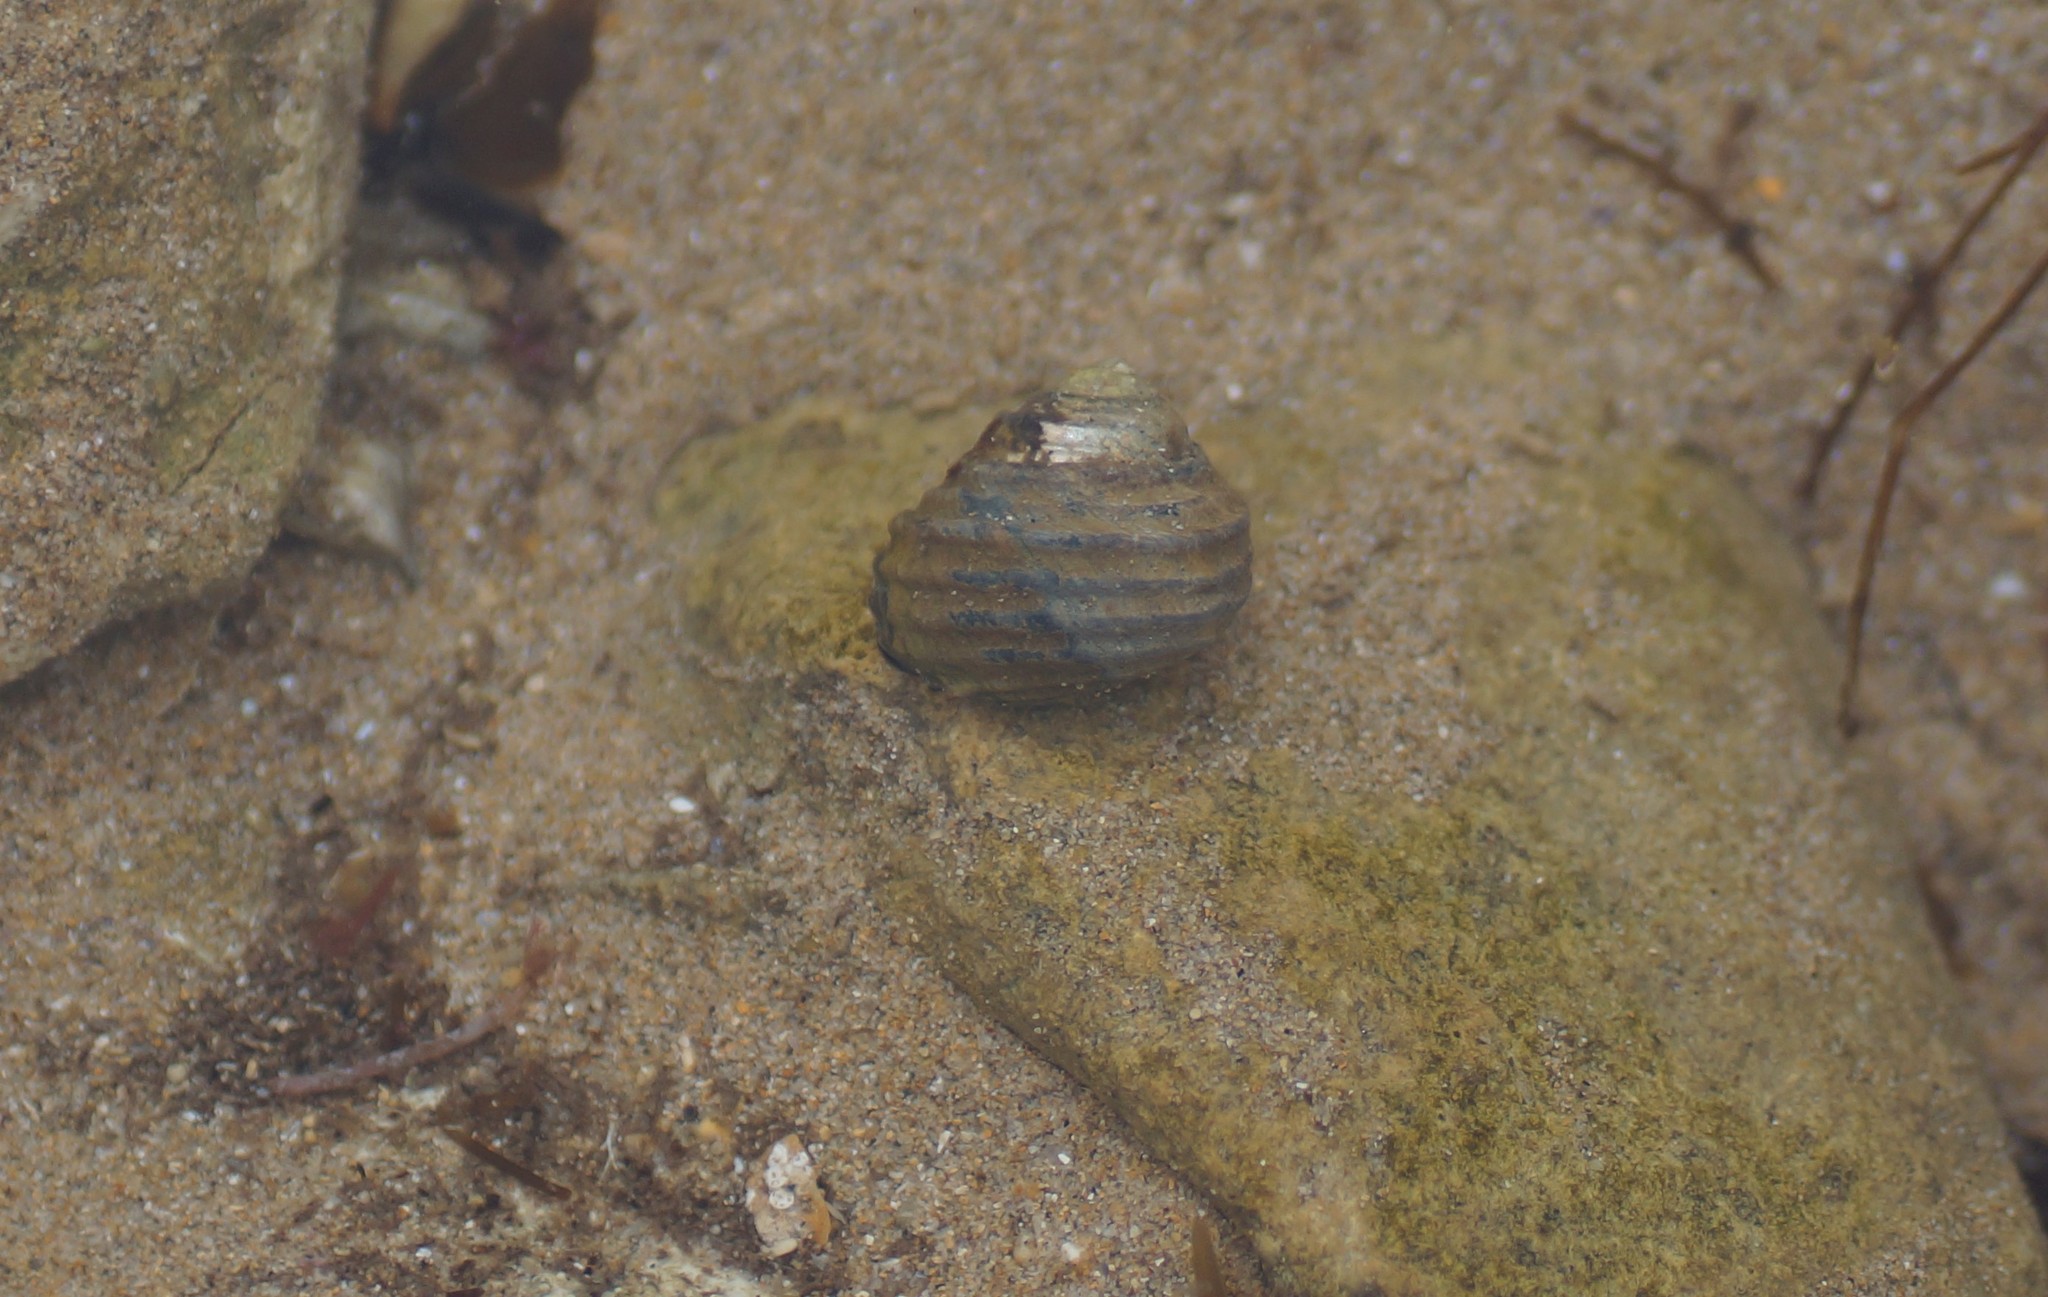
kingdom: Animalia
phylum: Mollusca
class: Gastropoda
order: Trochida
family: Trochidae
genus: Austrocochlea
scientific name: Austrocochlea constricta
